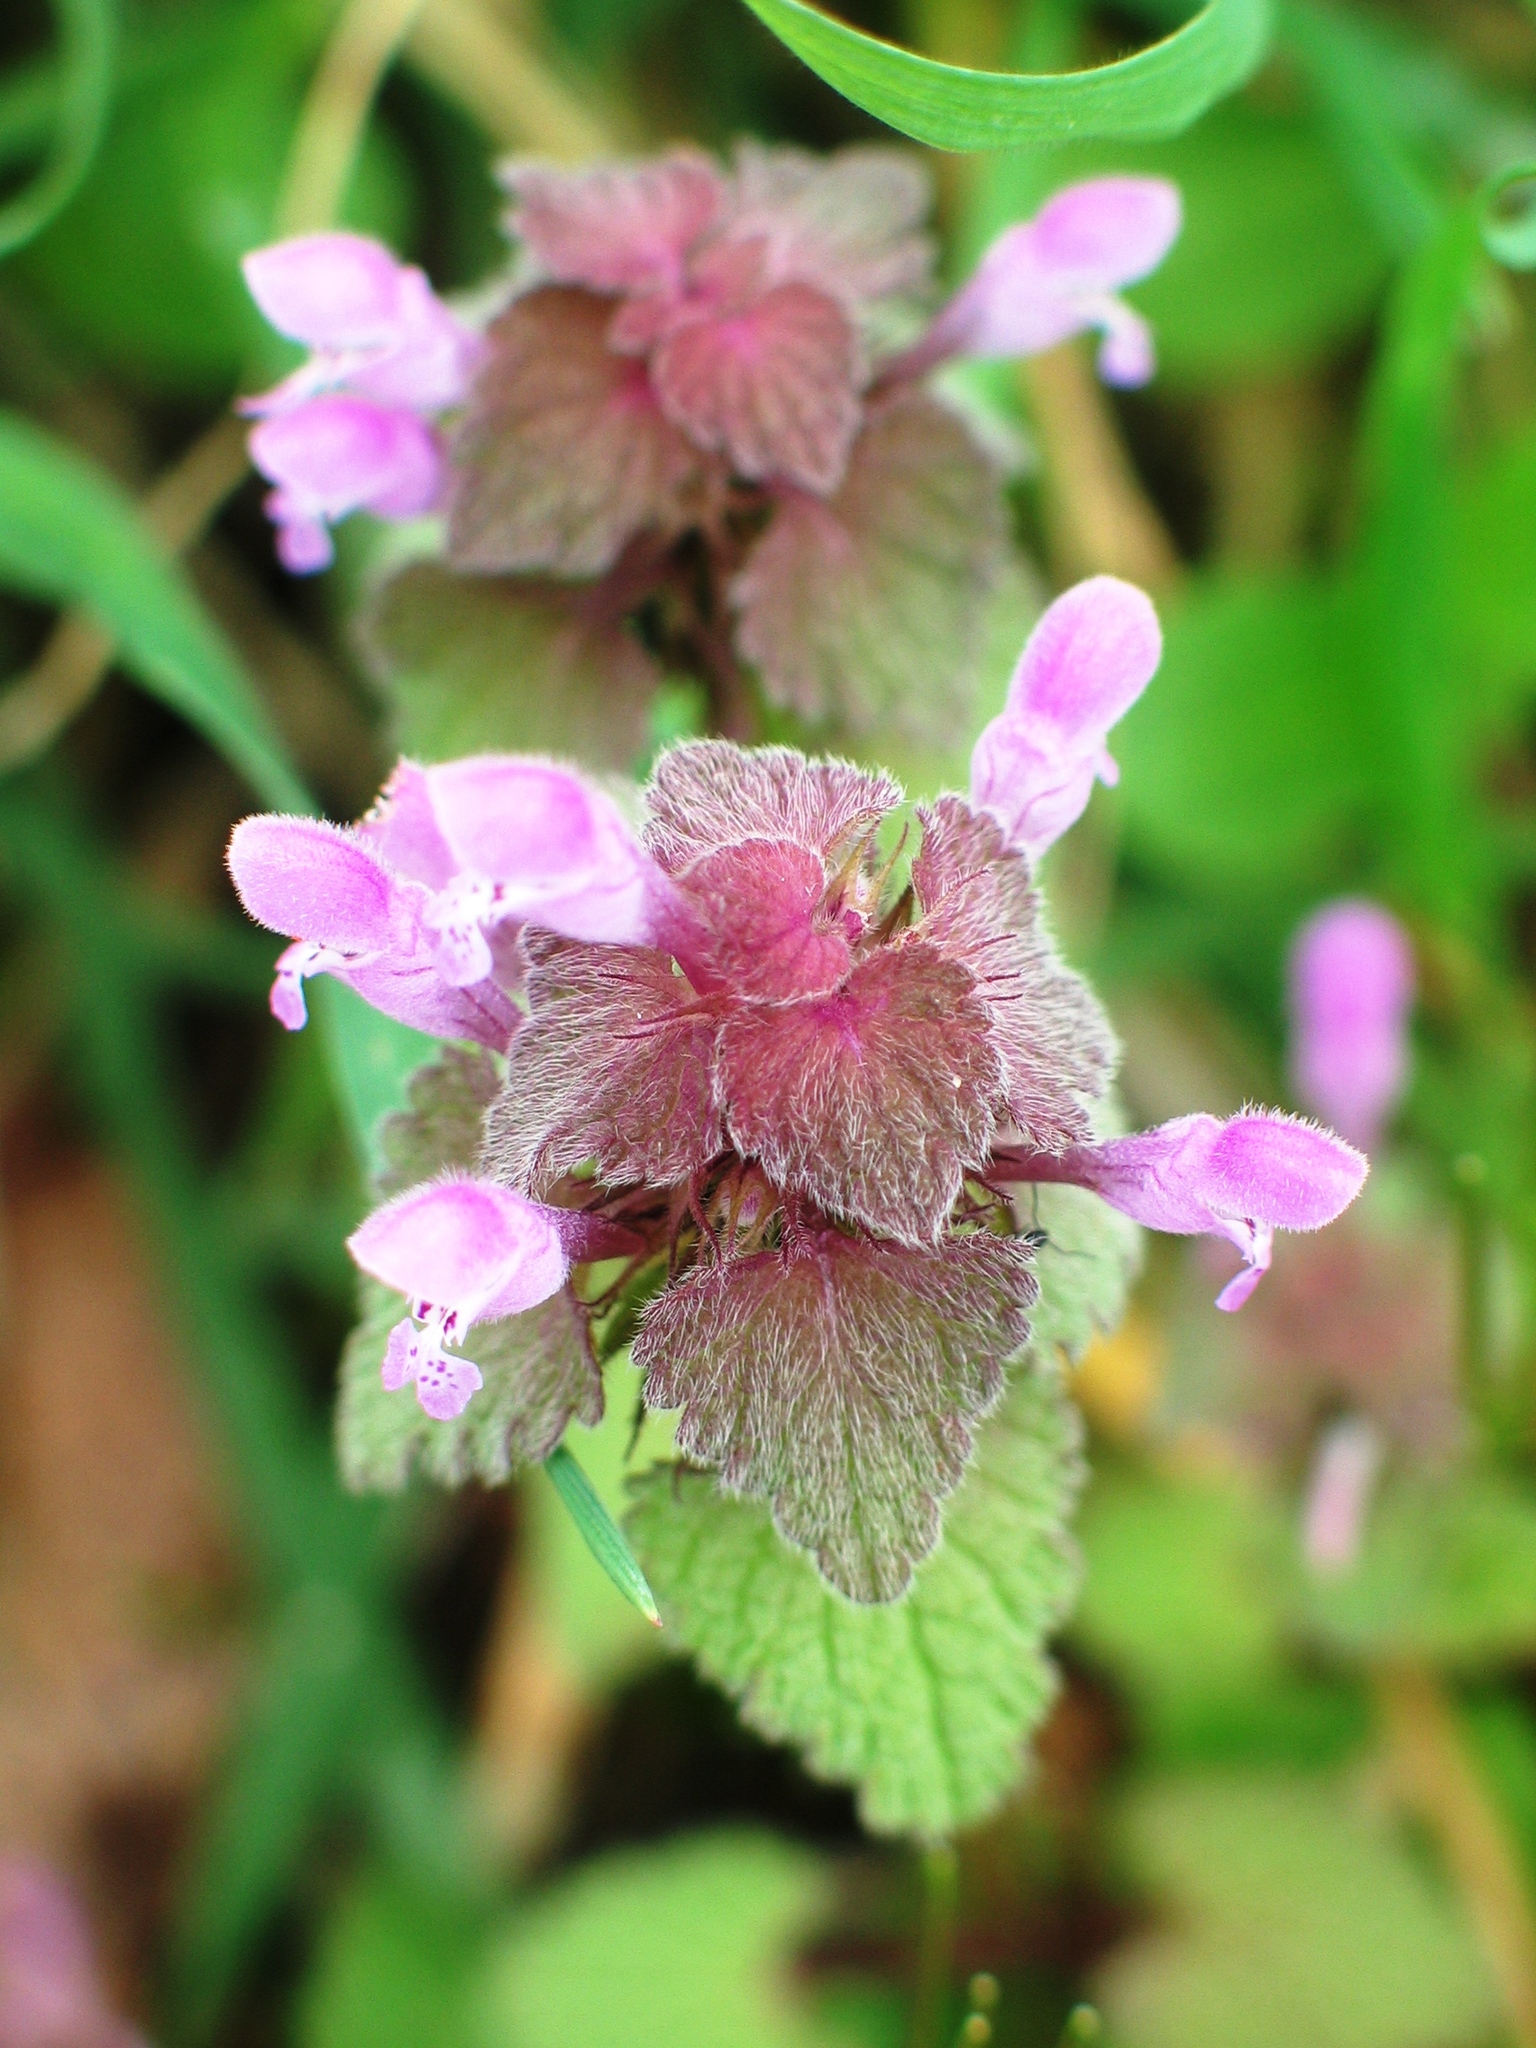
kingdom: Plantae
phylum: Tracheophyta
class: Magnoliopsida
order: Lamiales
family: Lamiaceae
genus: Lamium
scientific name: Lamium purpureum
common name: Red dead-nettle
